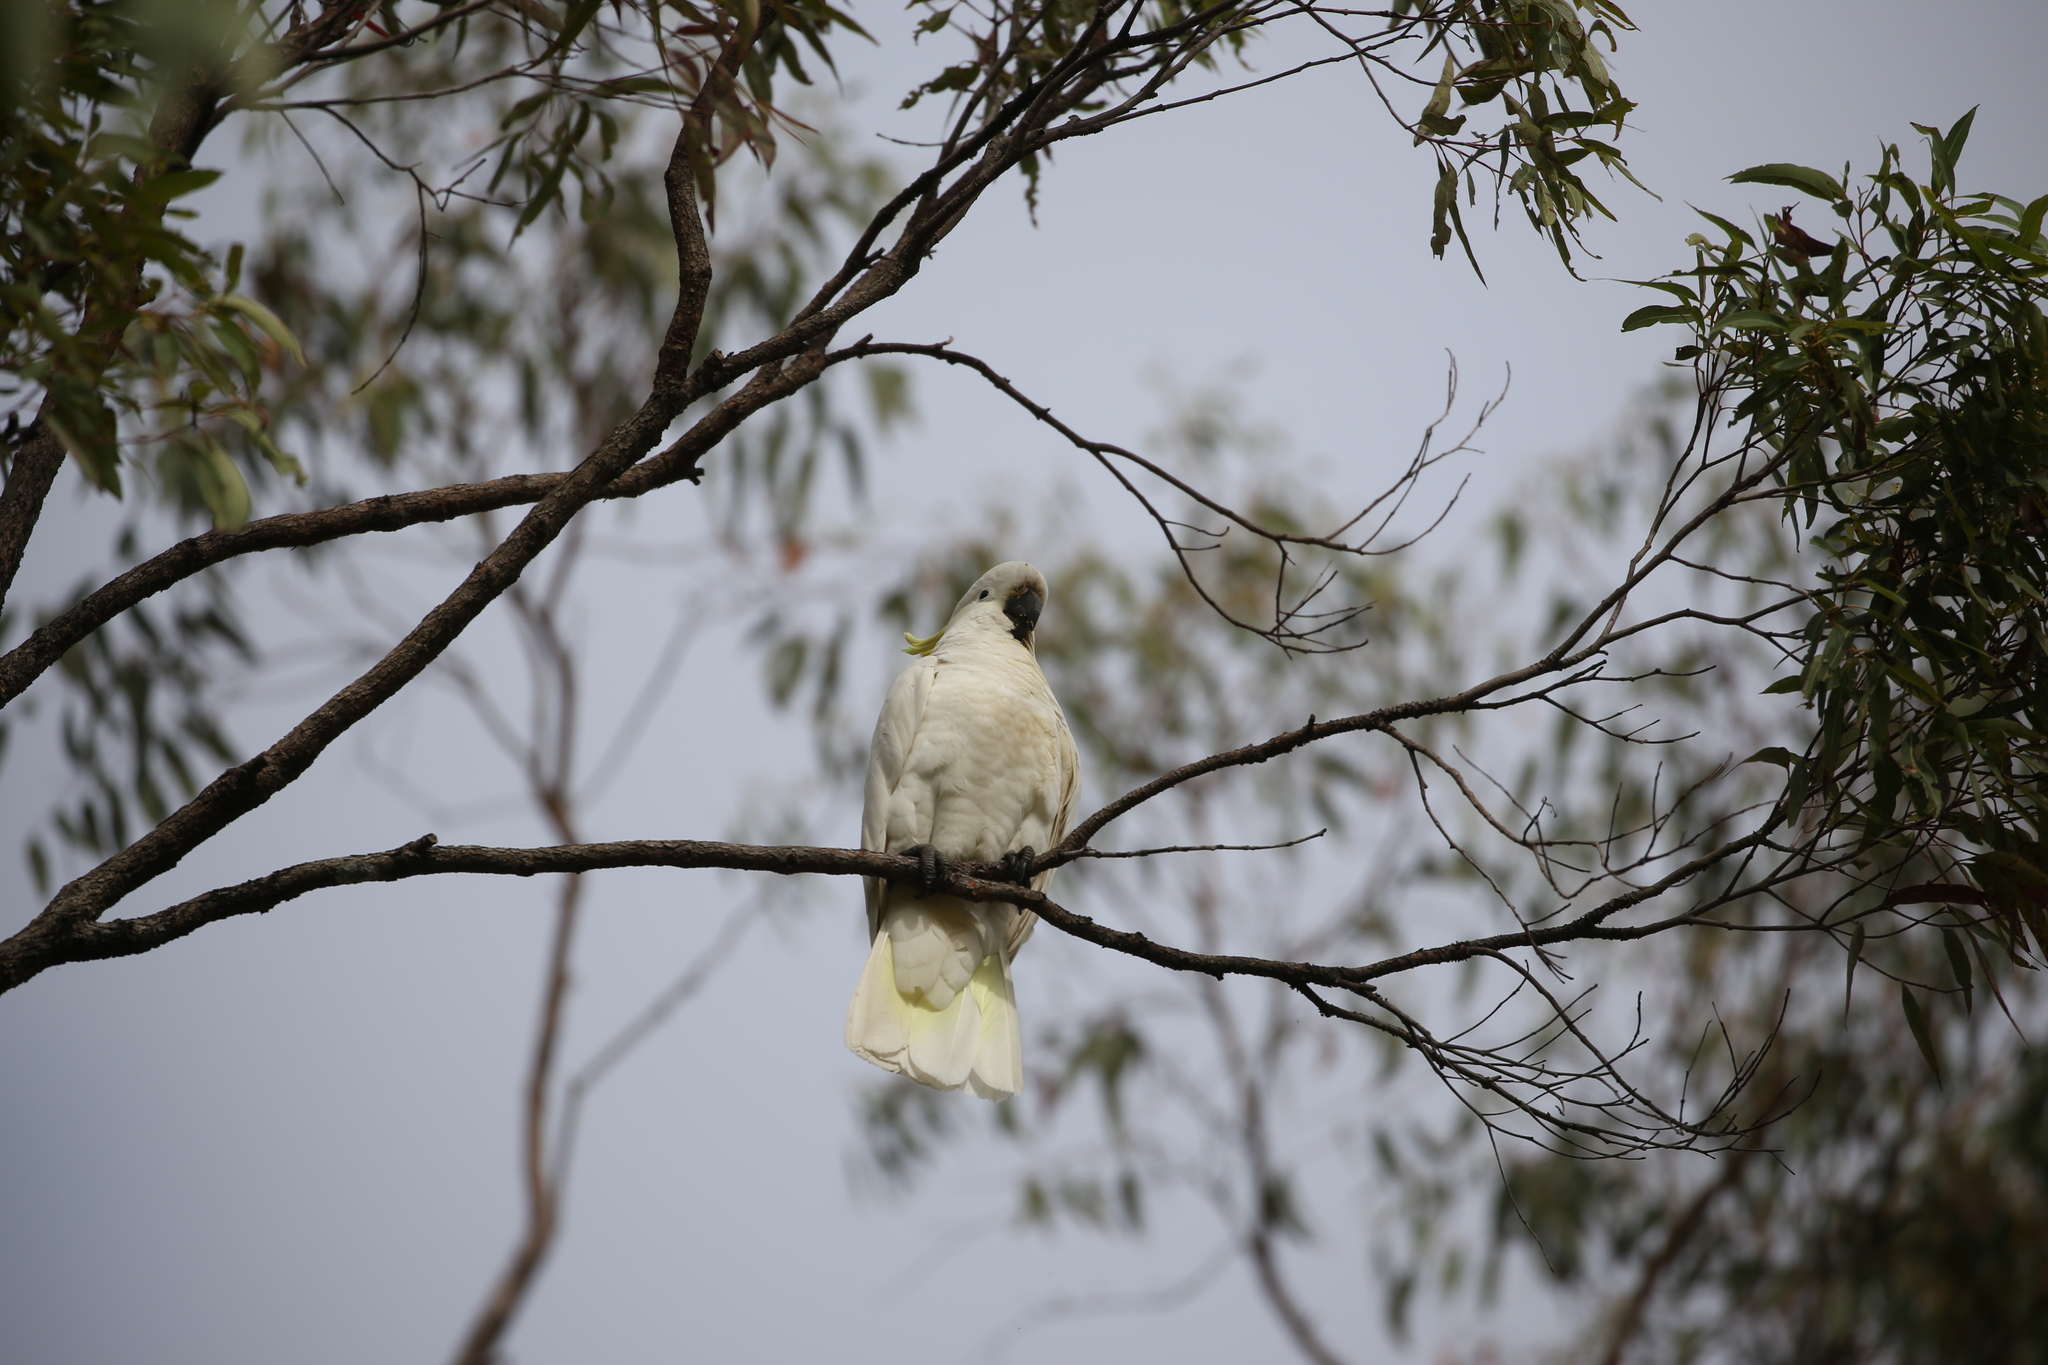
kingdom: Animalia
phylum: Chordata
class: Aves
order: Psittaciformes
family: Psittacidae
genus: Cacatua
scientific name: Cacatua galerita
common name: Sulphur-crested cockatoo
